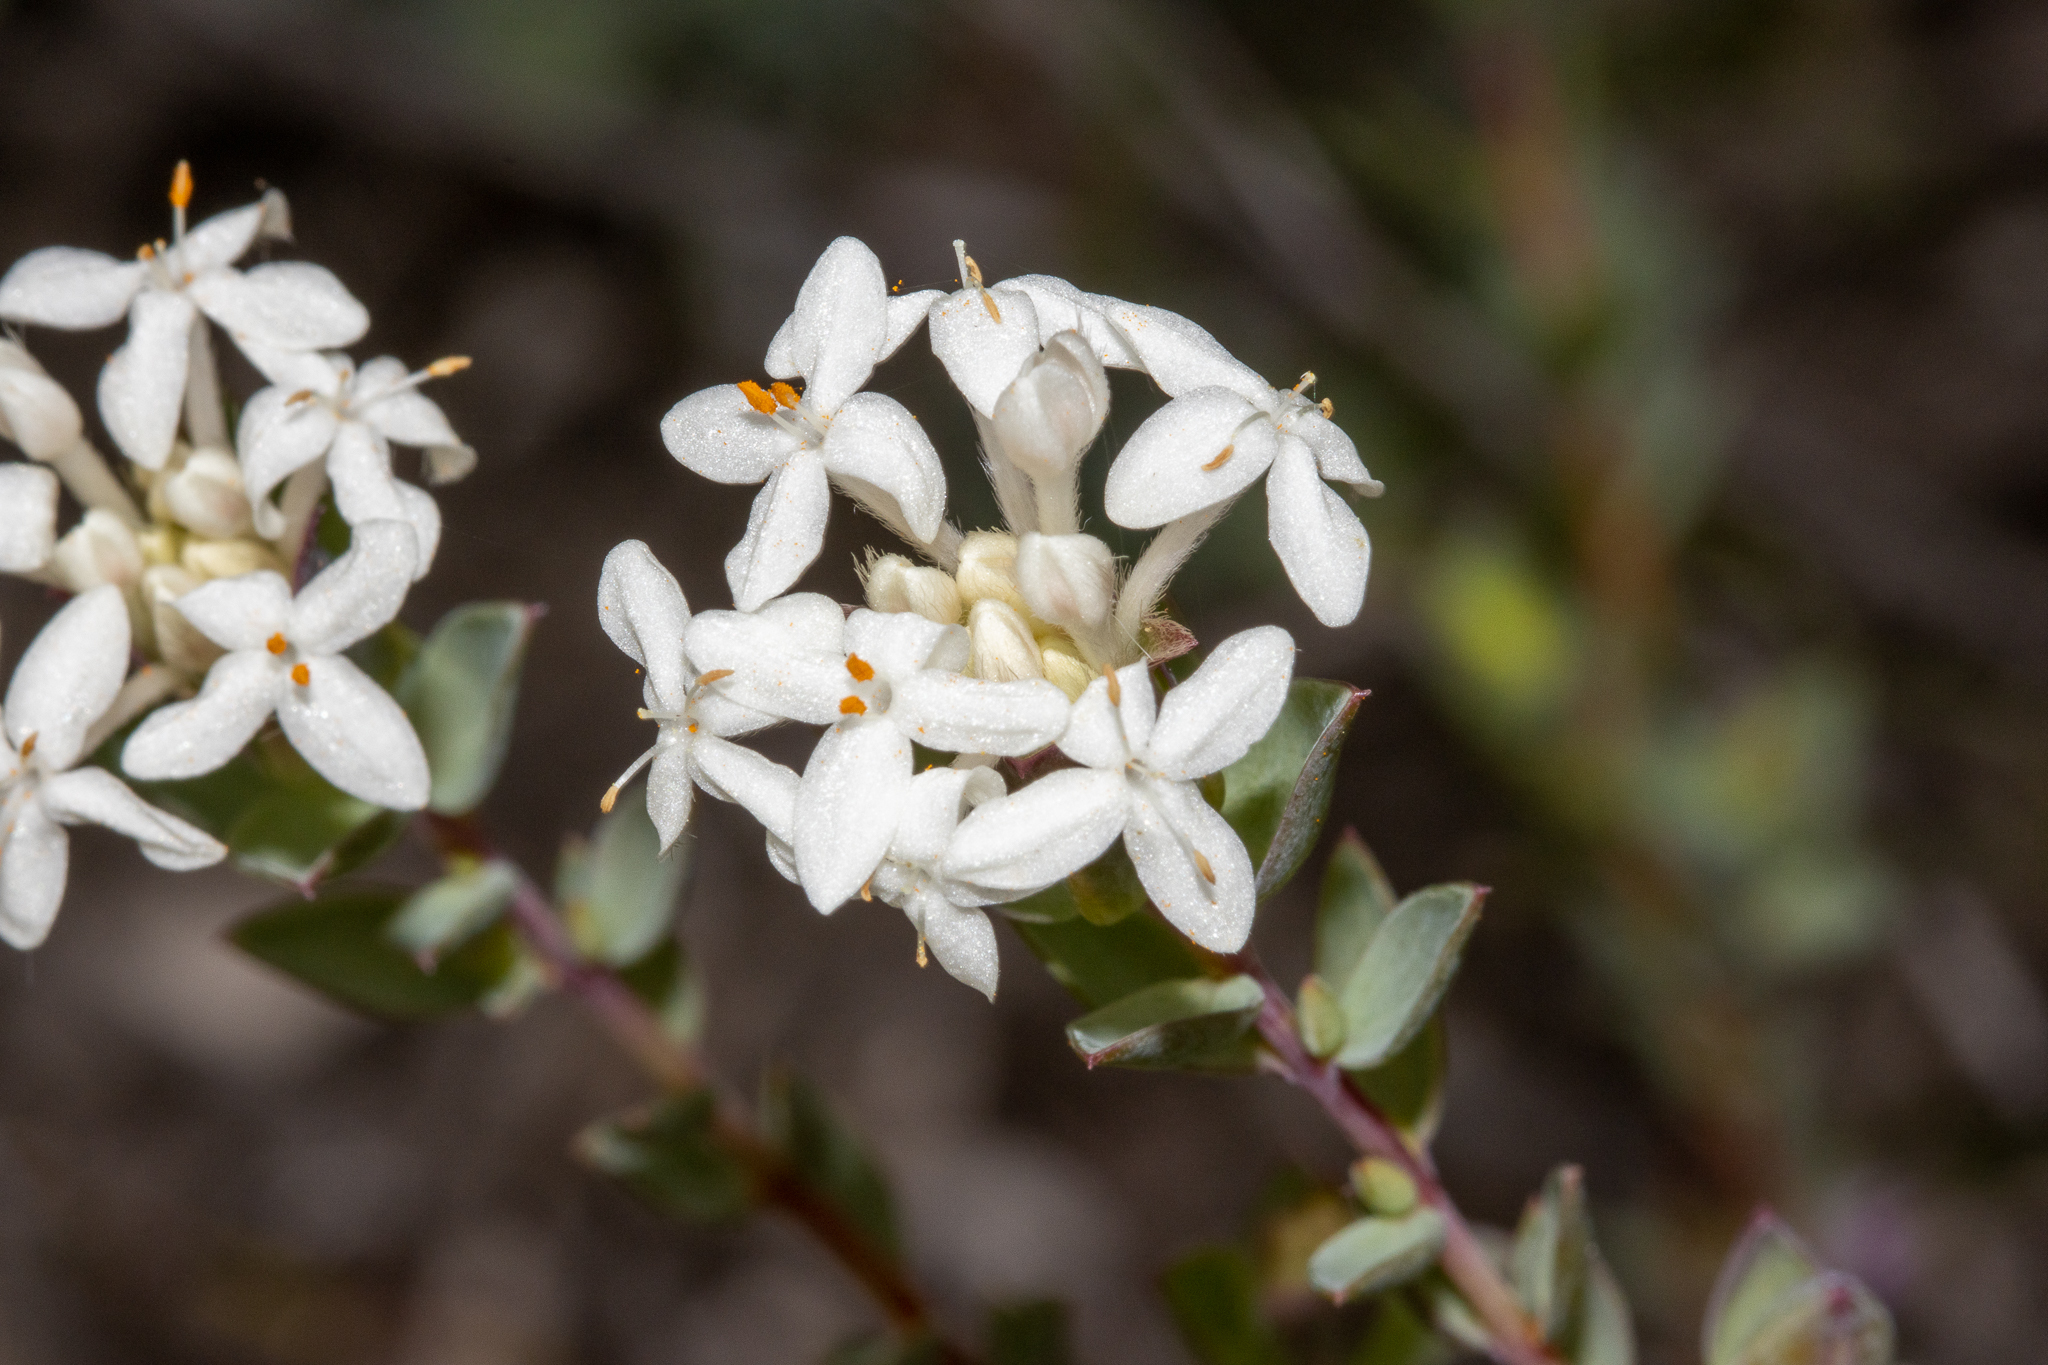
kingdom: Plantae
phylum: Tracheophyta
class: Magnoliopsida
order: Malvales
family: Thymelaeaceae
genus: Pimelea
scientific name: Pimelea glauca
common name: Smooth riceflower
